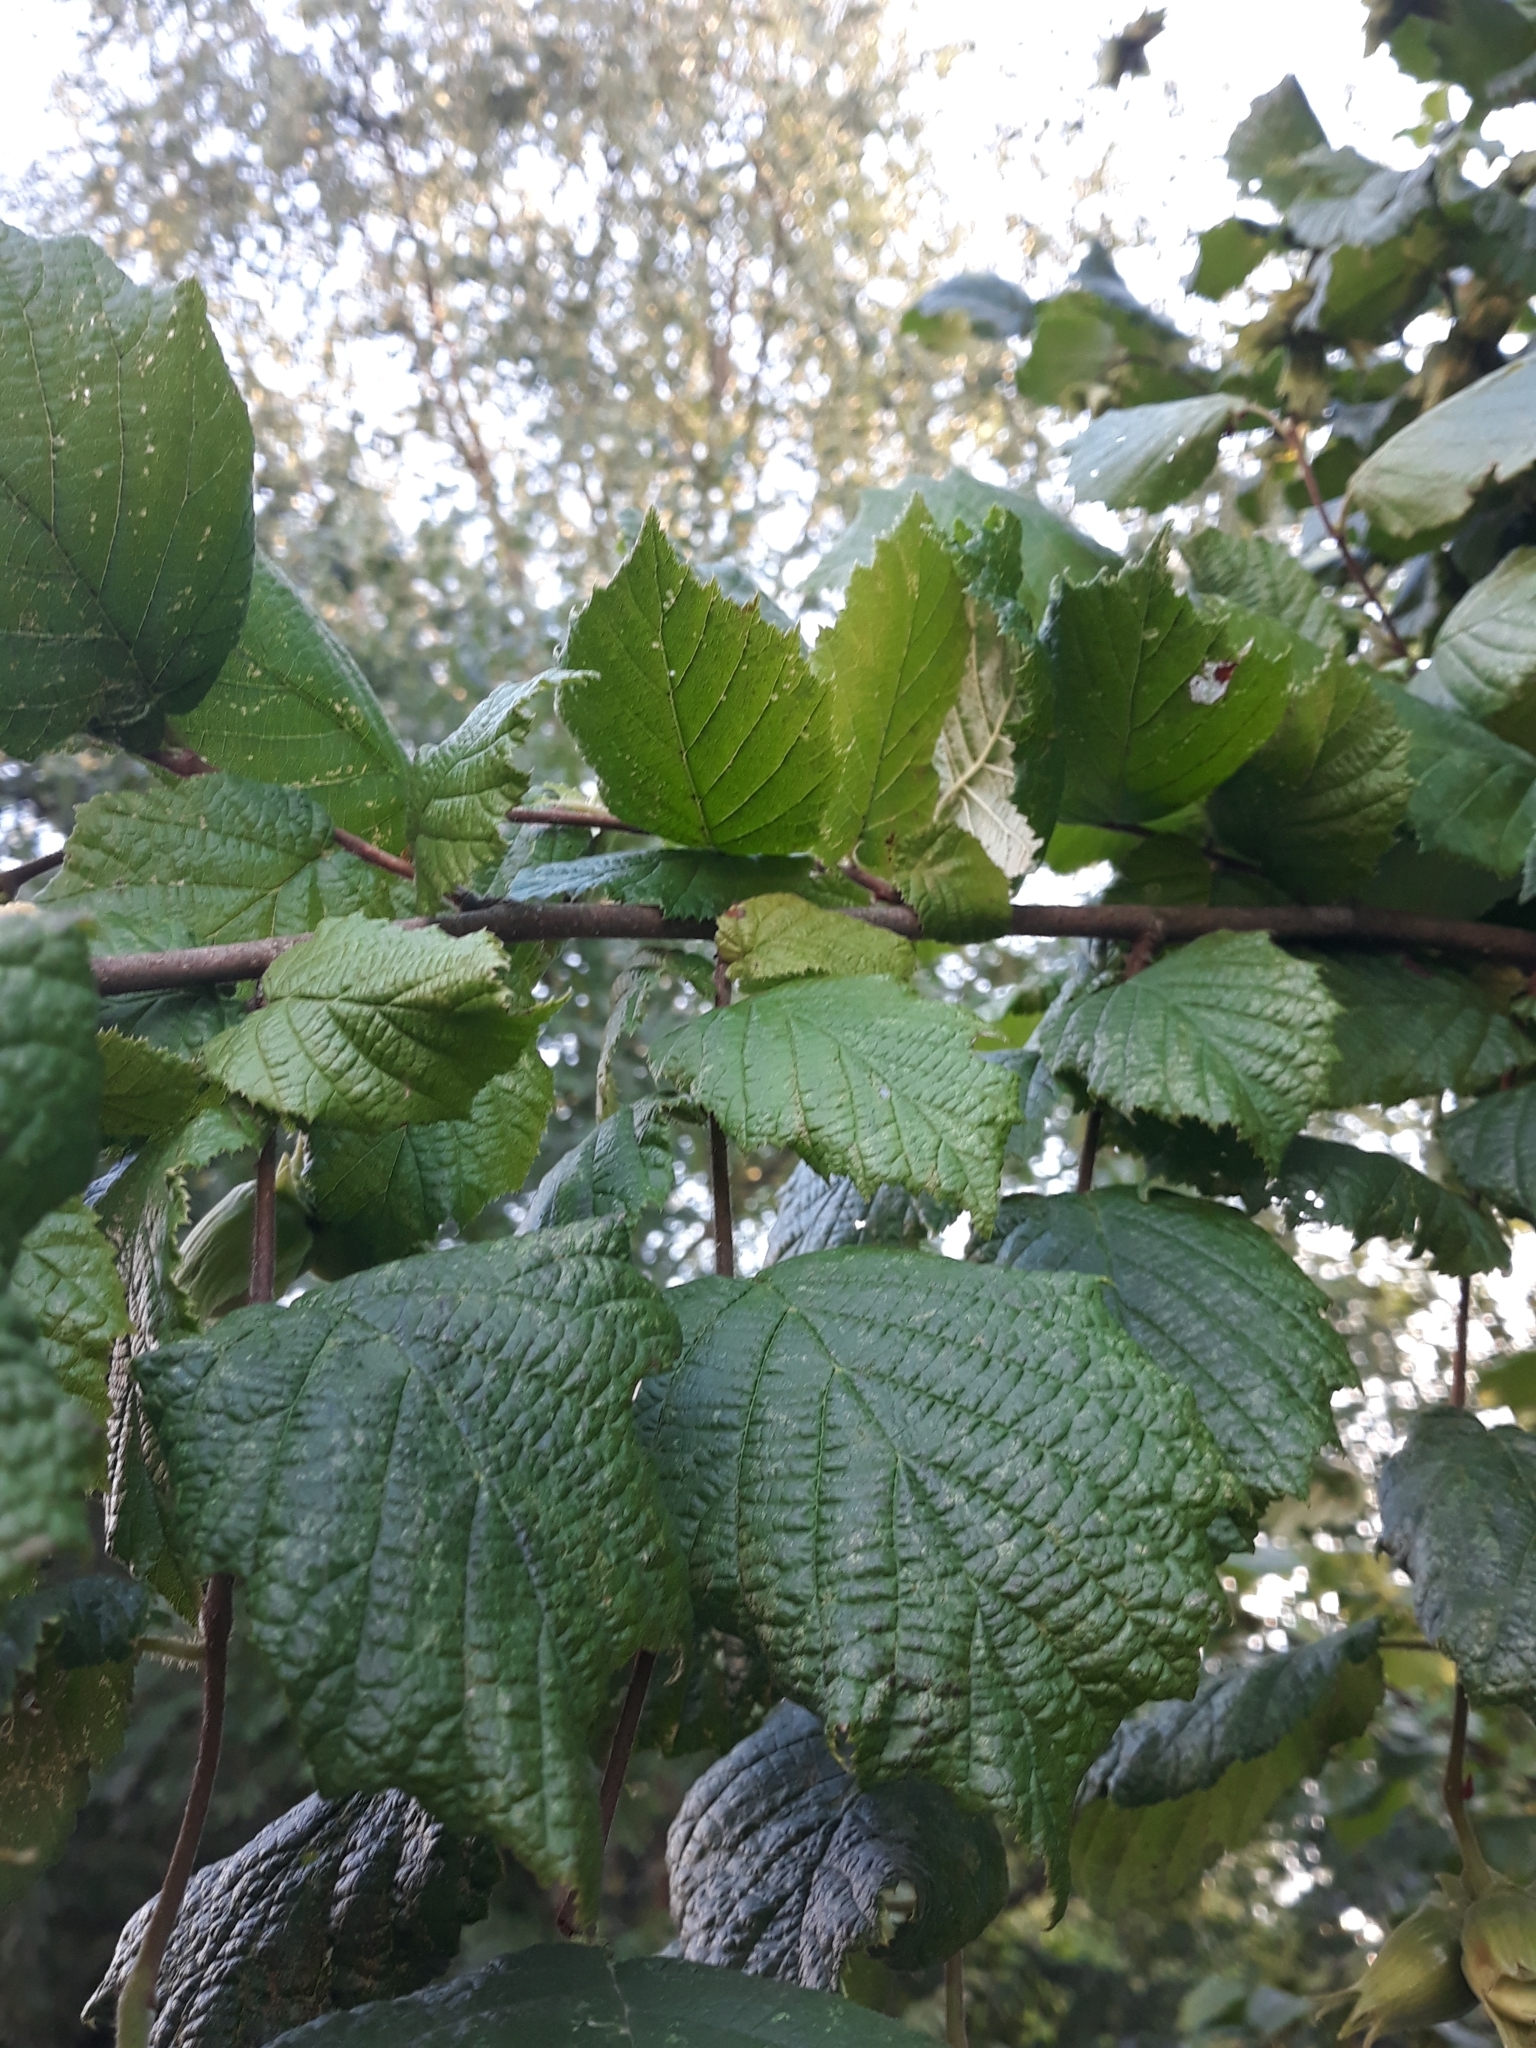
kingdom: Plantae
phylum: Tracheophyta
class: Magnoliopsida
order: Fagales
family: Betulaceae
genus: Corylus
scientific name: Corylus avellana
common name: European hazel
